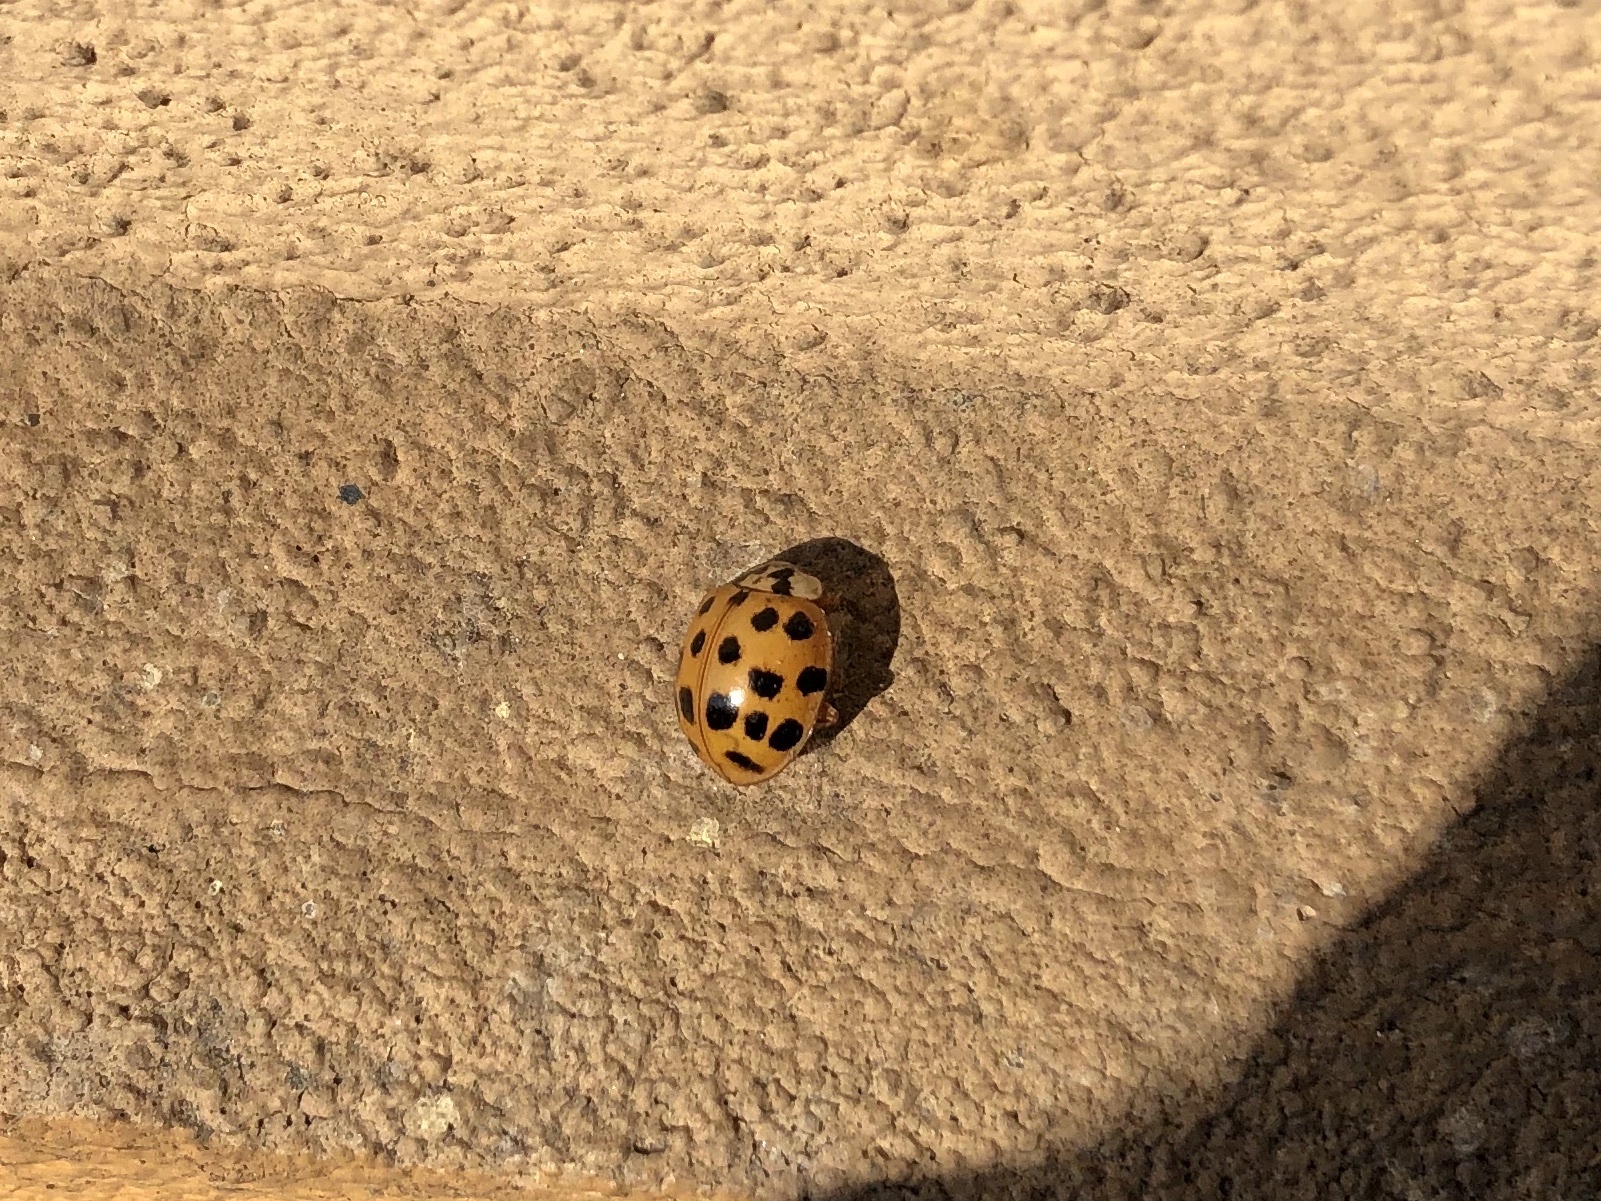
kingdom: Animalia
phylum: Arthropoda
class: Insecta
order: Coleoptera
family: Coccinellidae
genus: Harmonia
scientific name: Harmonia axyridis
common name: Harlequin ladybird
